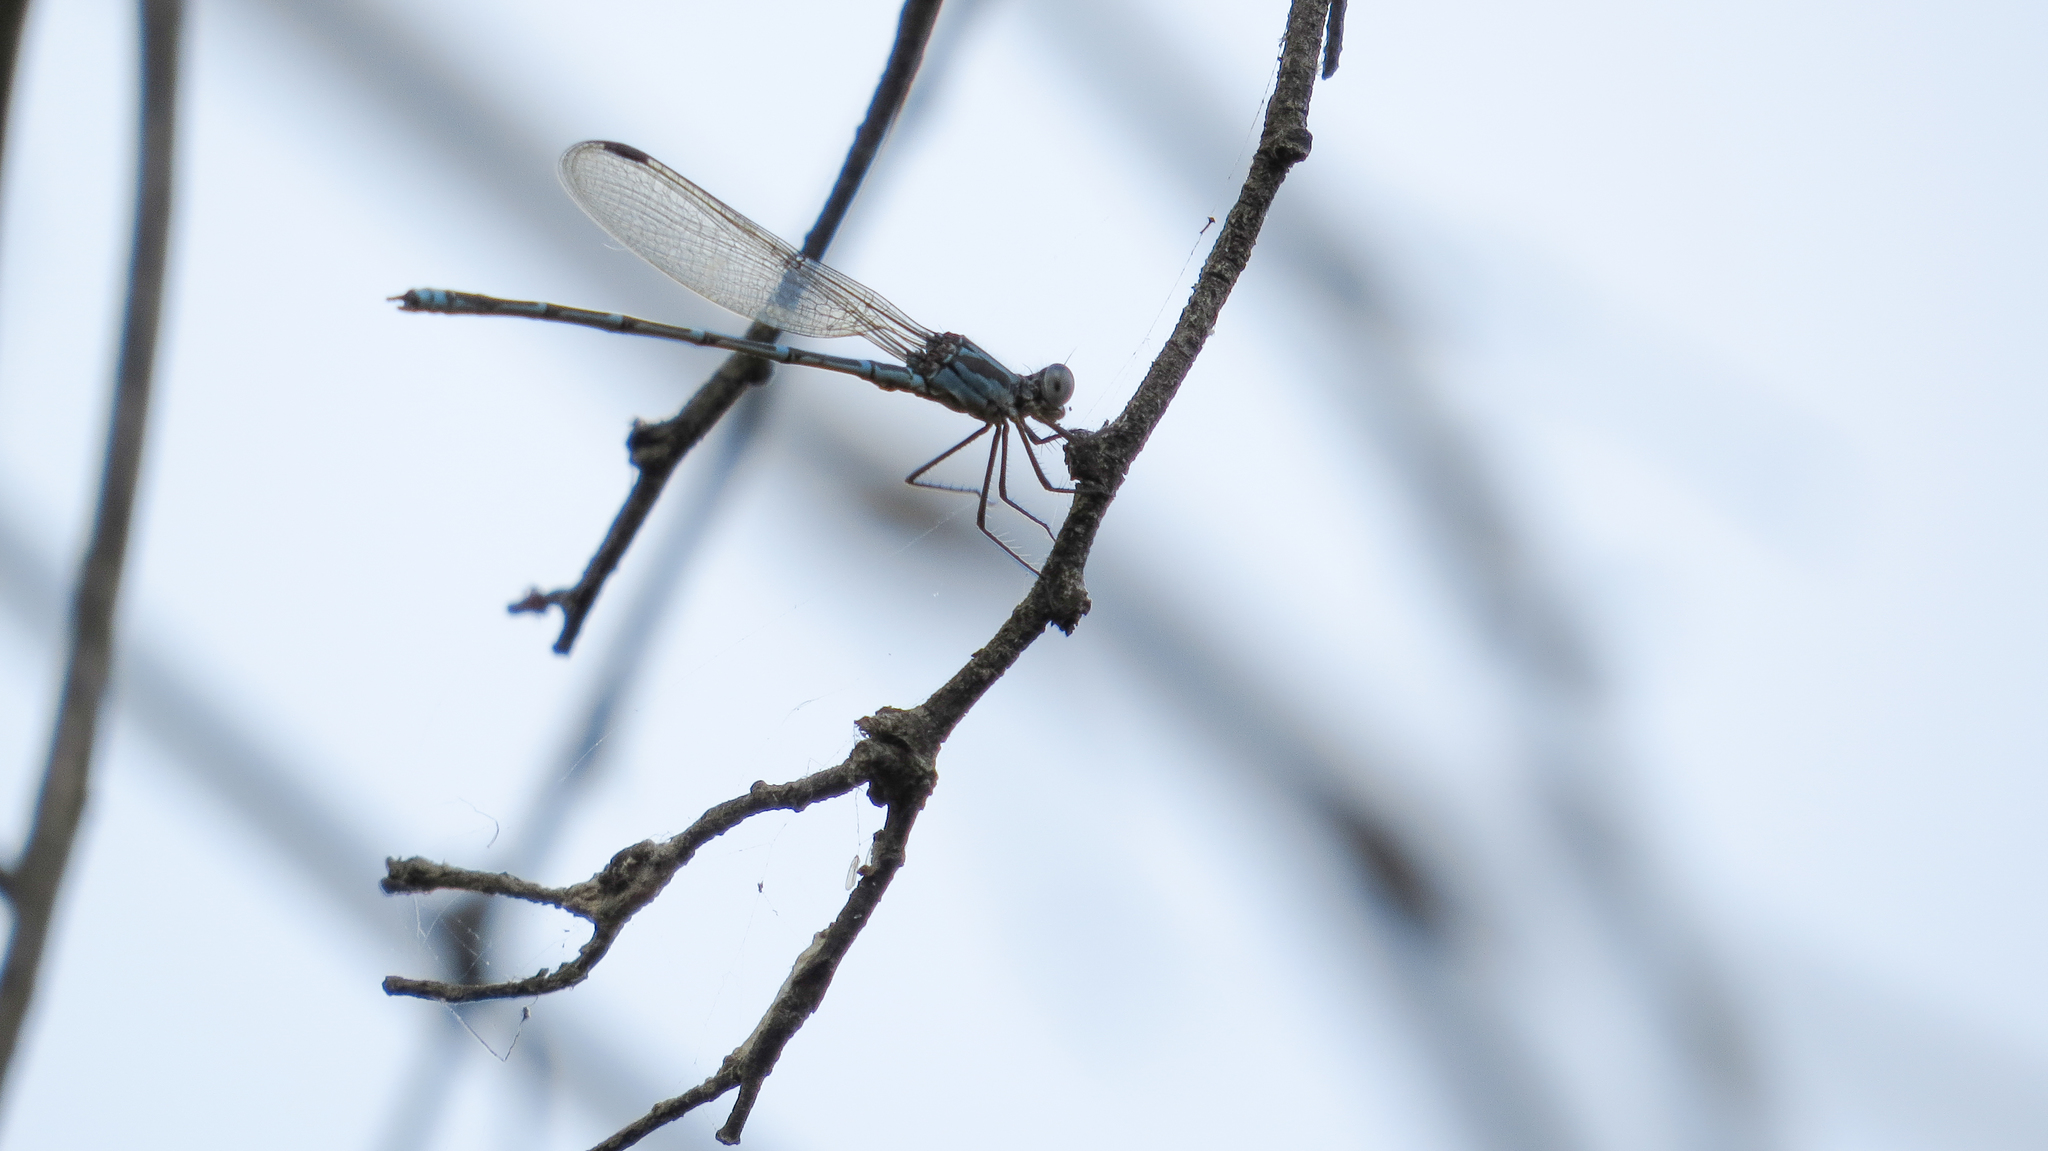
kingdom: Animalia
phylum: Arthropoda
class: Insecta
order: Odonata
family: Lestidae
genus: Austrolestes
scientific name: Austrolestes aridus
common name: Inland ringtail
